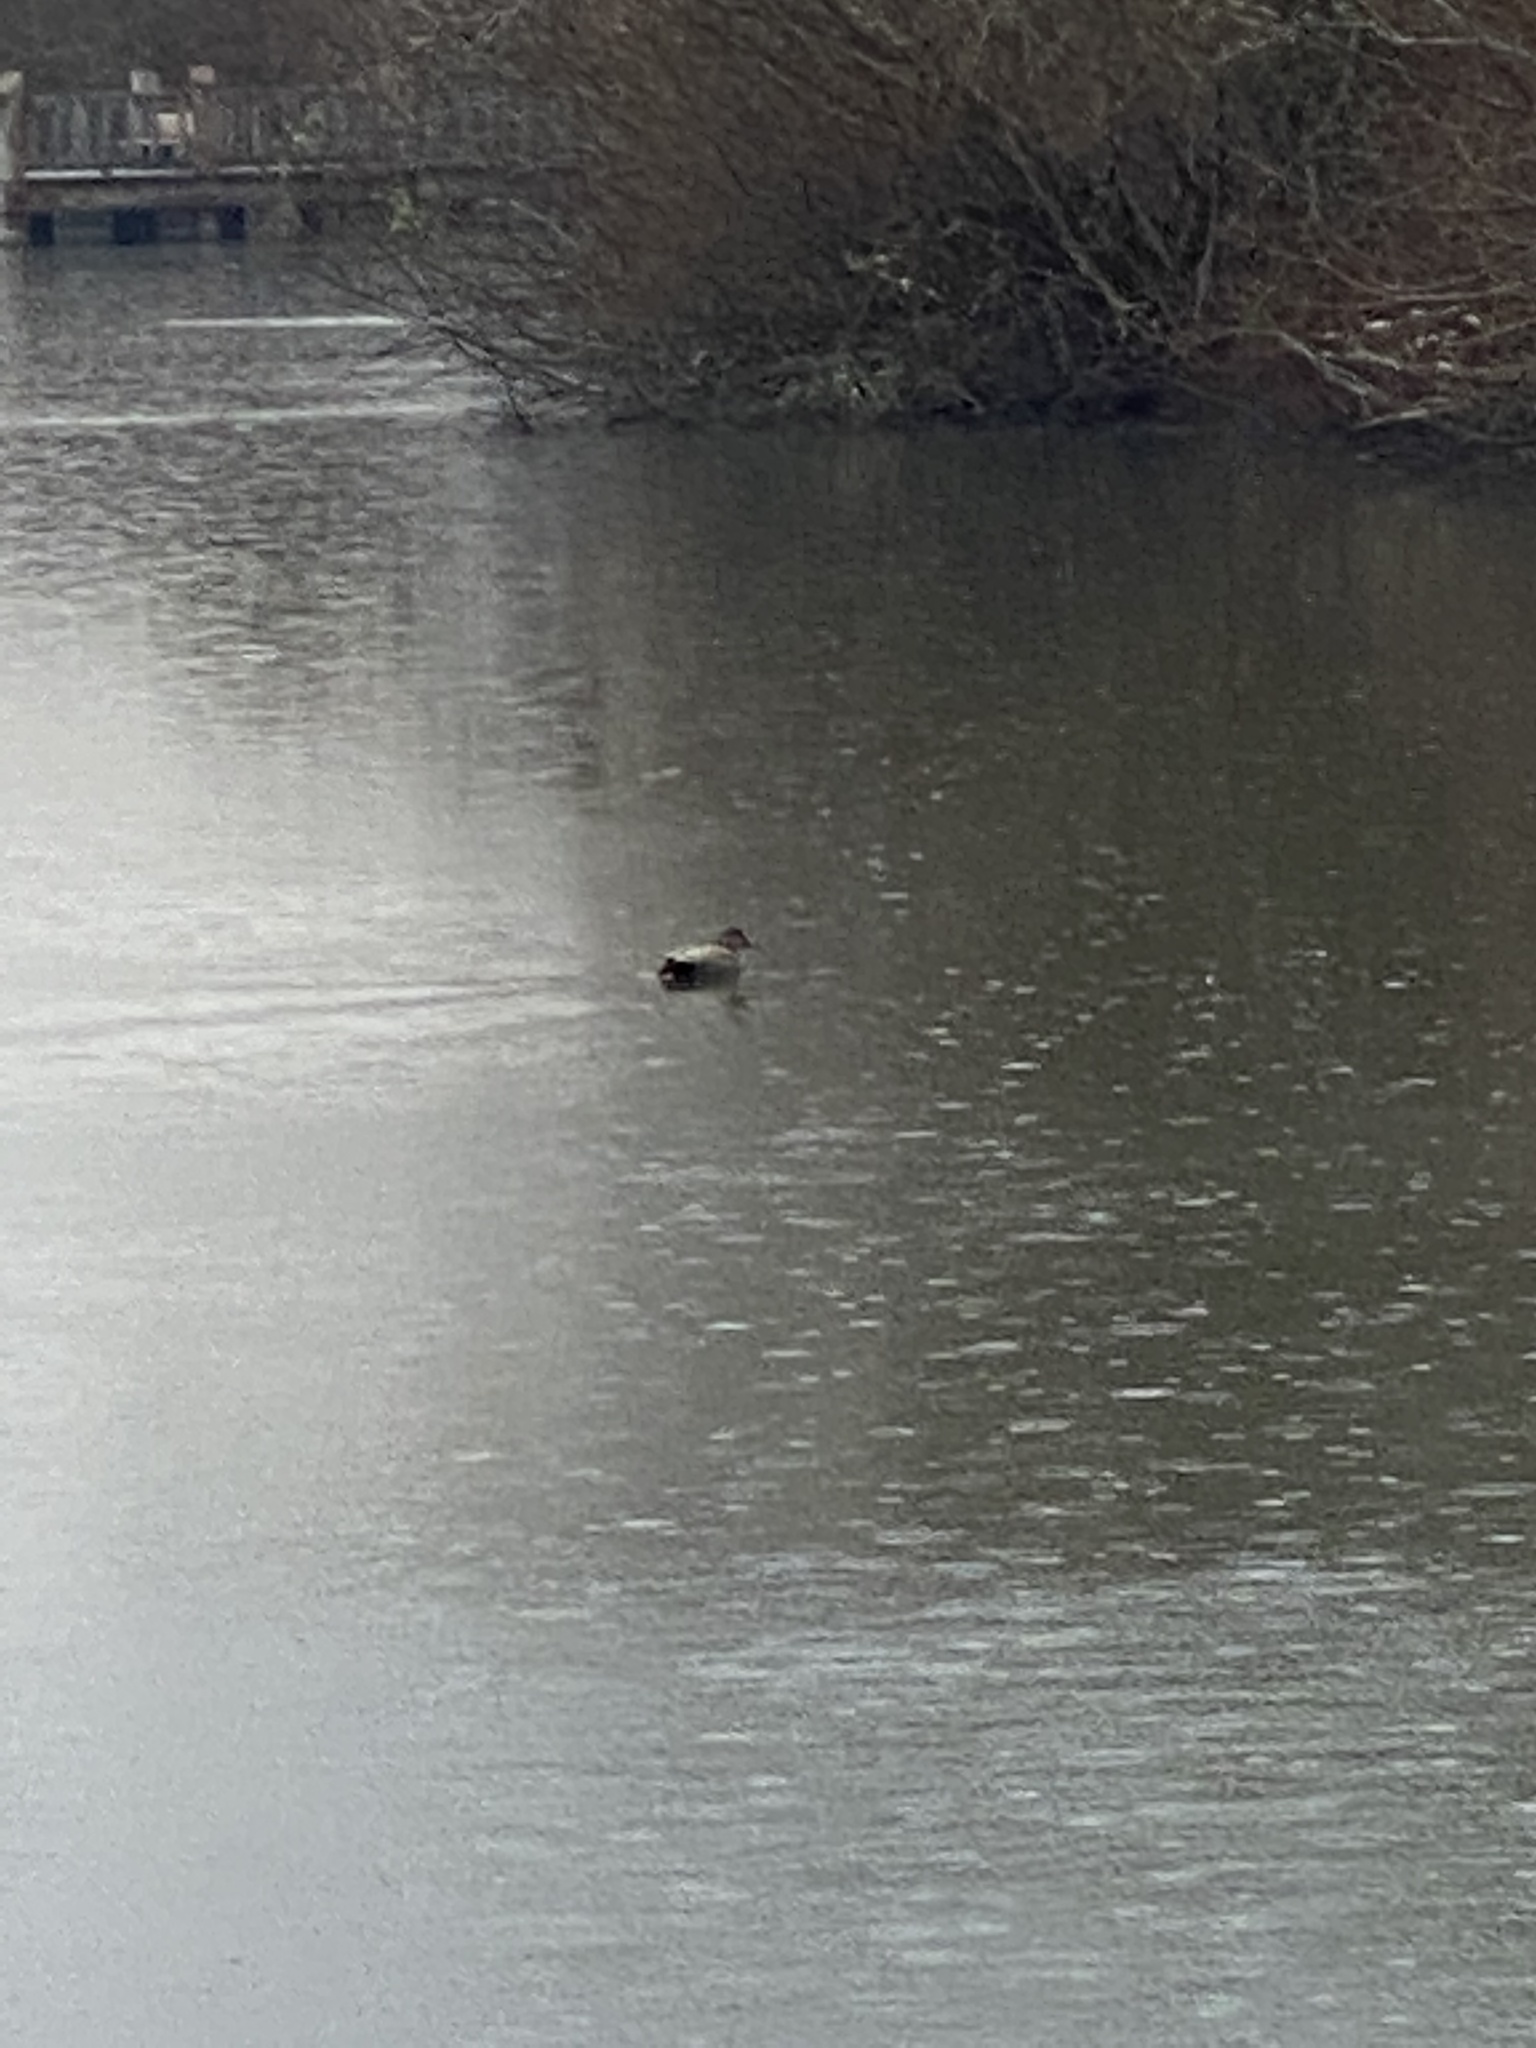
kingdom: Animalia
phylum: Chordata
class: Aves
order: Anseriformes
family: Anatidae
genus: Mareca
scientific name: Mareca strepera
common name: Gadwall
